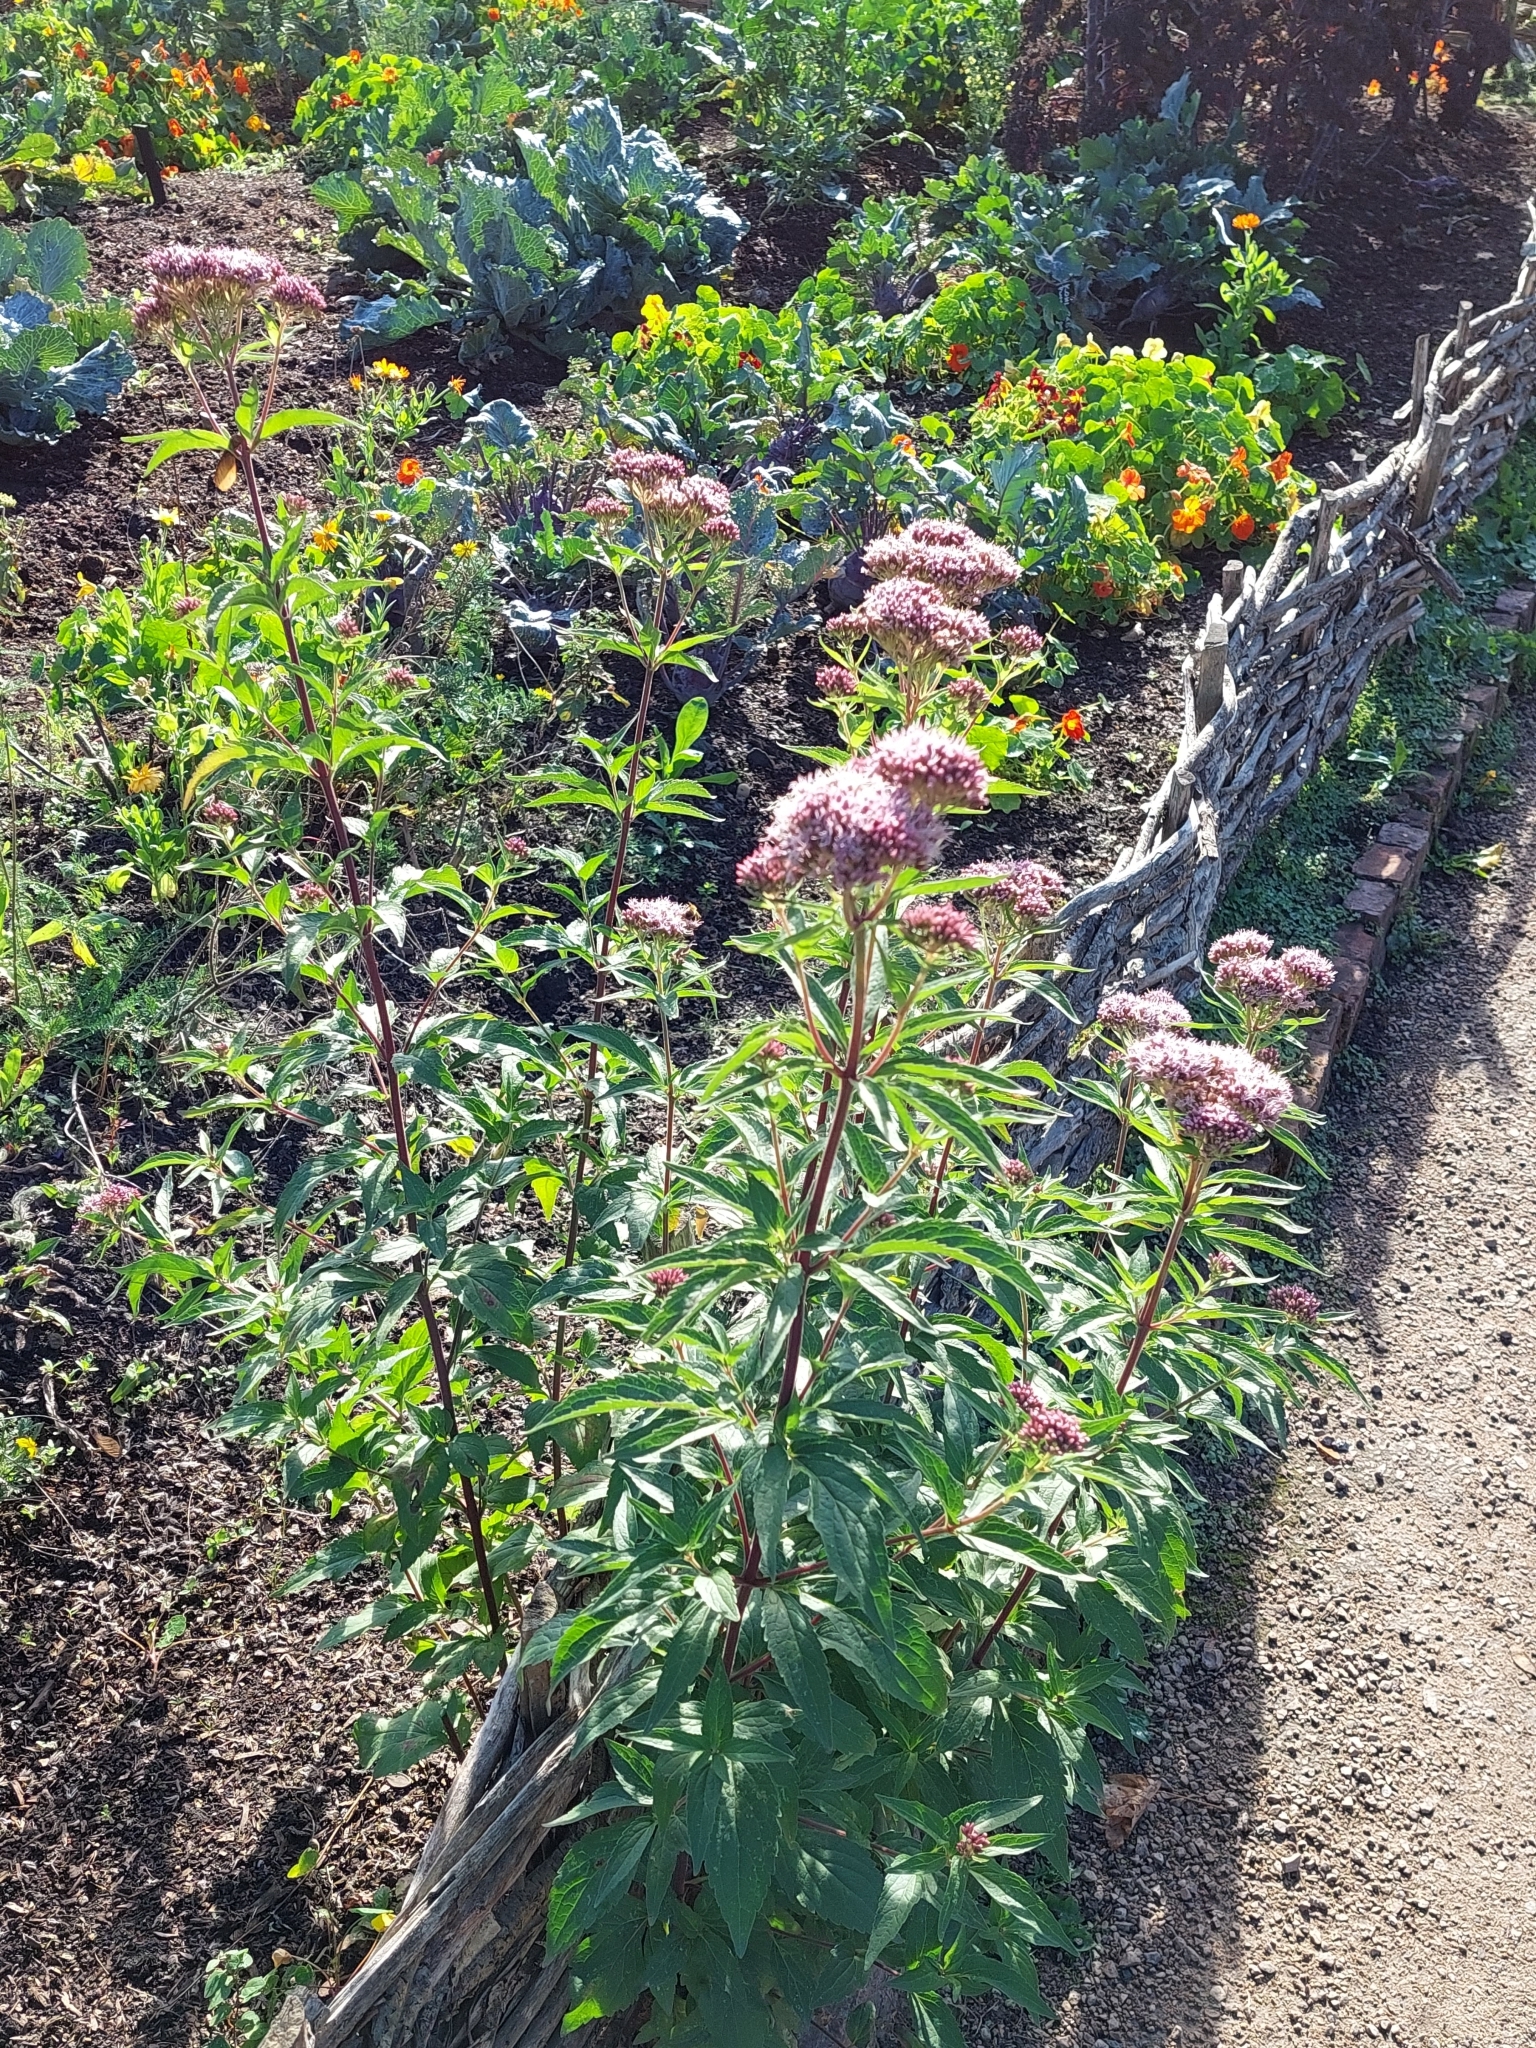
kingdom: Plantae
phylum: Tracheophyta
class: Magnoliopsida
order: Asterales
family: Asteraceae
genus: Eupatorium
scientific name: Eupatorium cannabinum
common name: Hemp-agrimony
